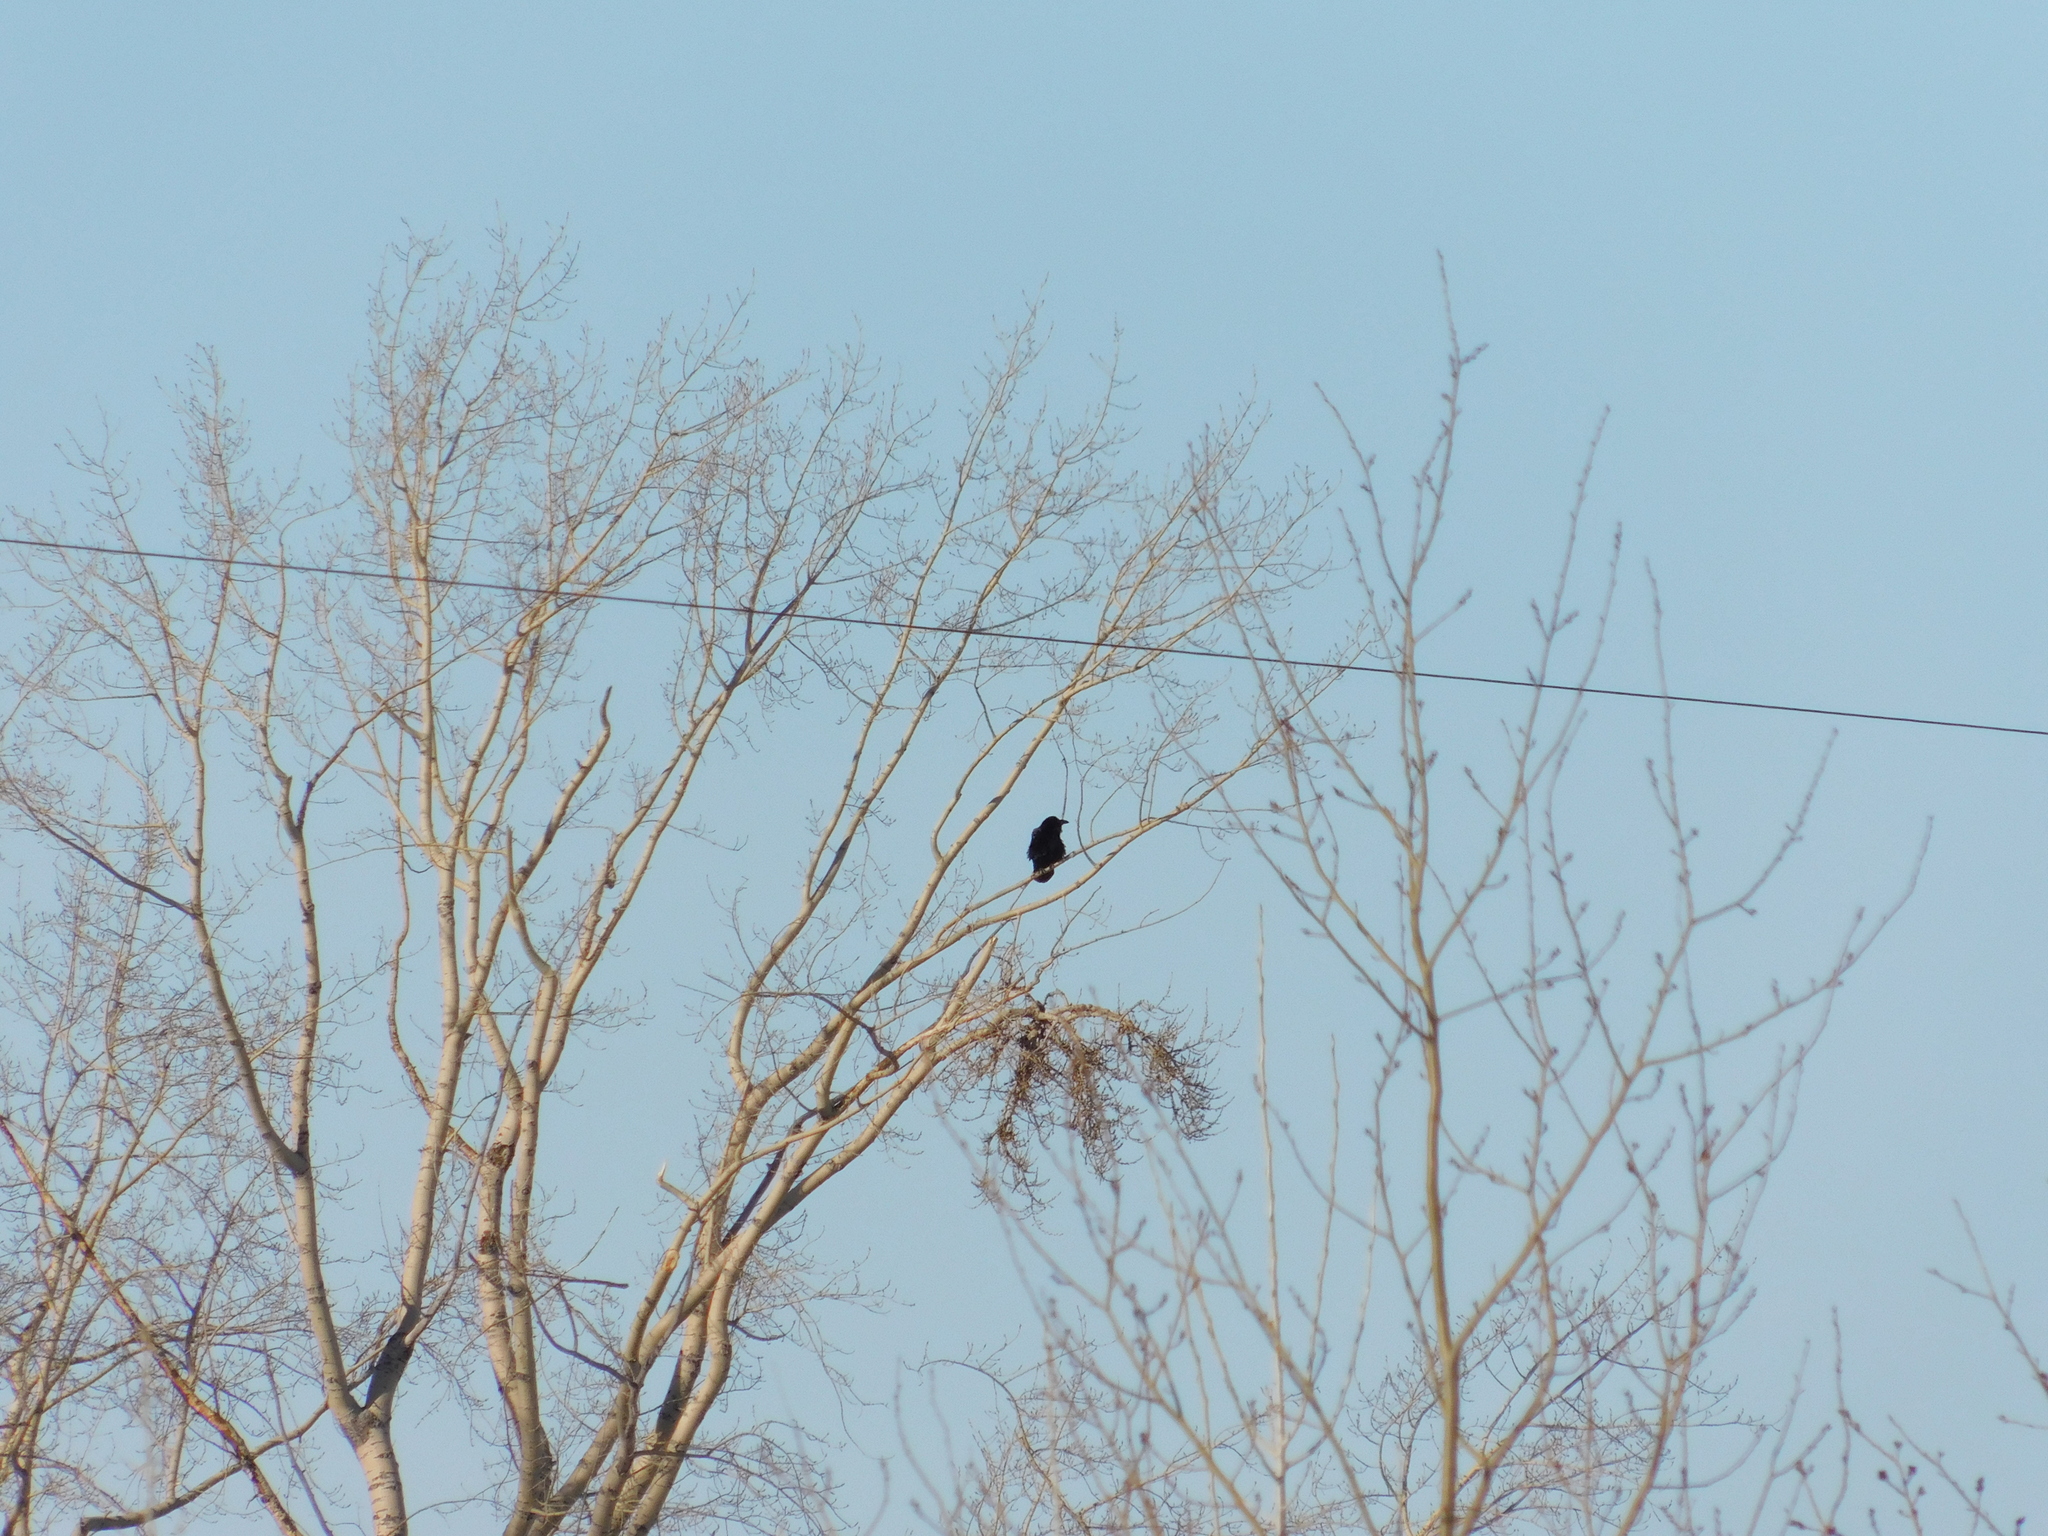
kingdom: Animalia
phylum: Chordata
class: Aves
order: Passeriformes
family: Corvidae
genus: Corvus
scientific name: Corvus corax
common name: Common raven
